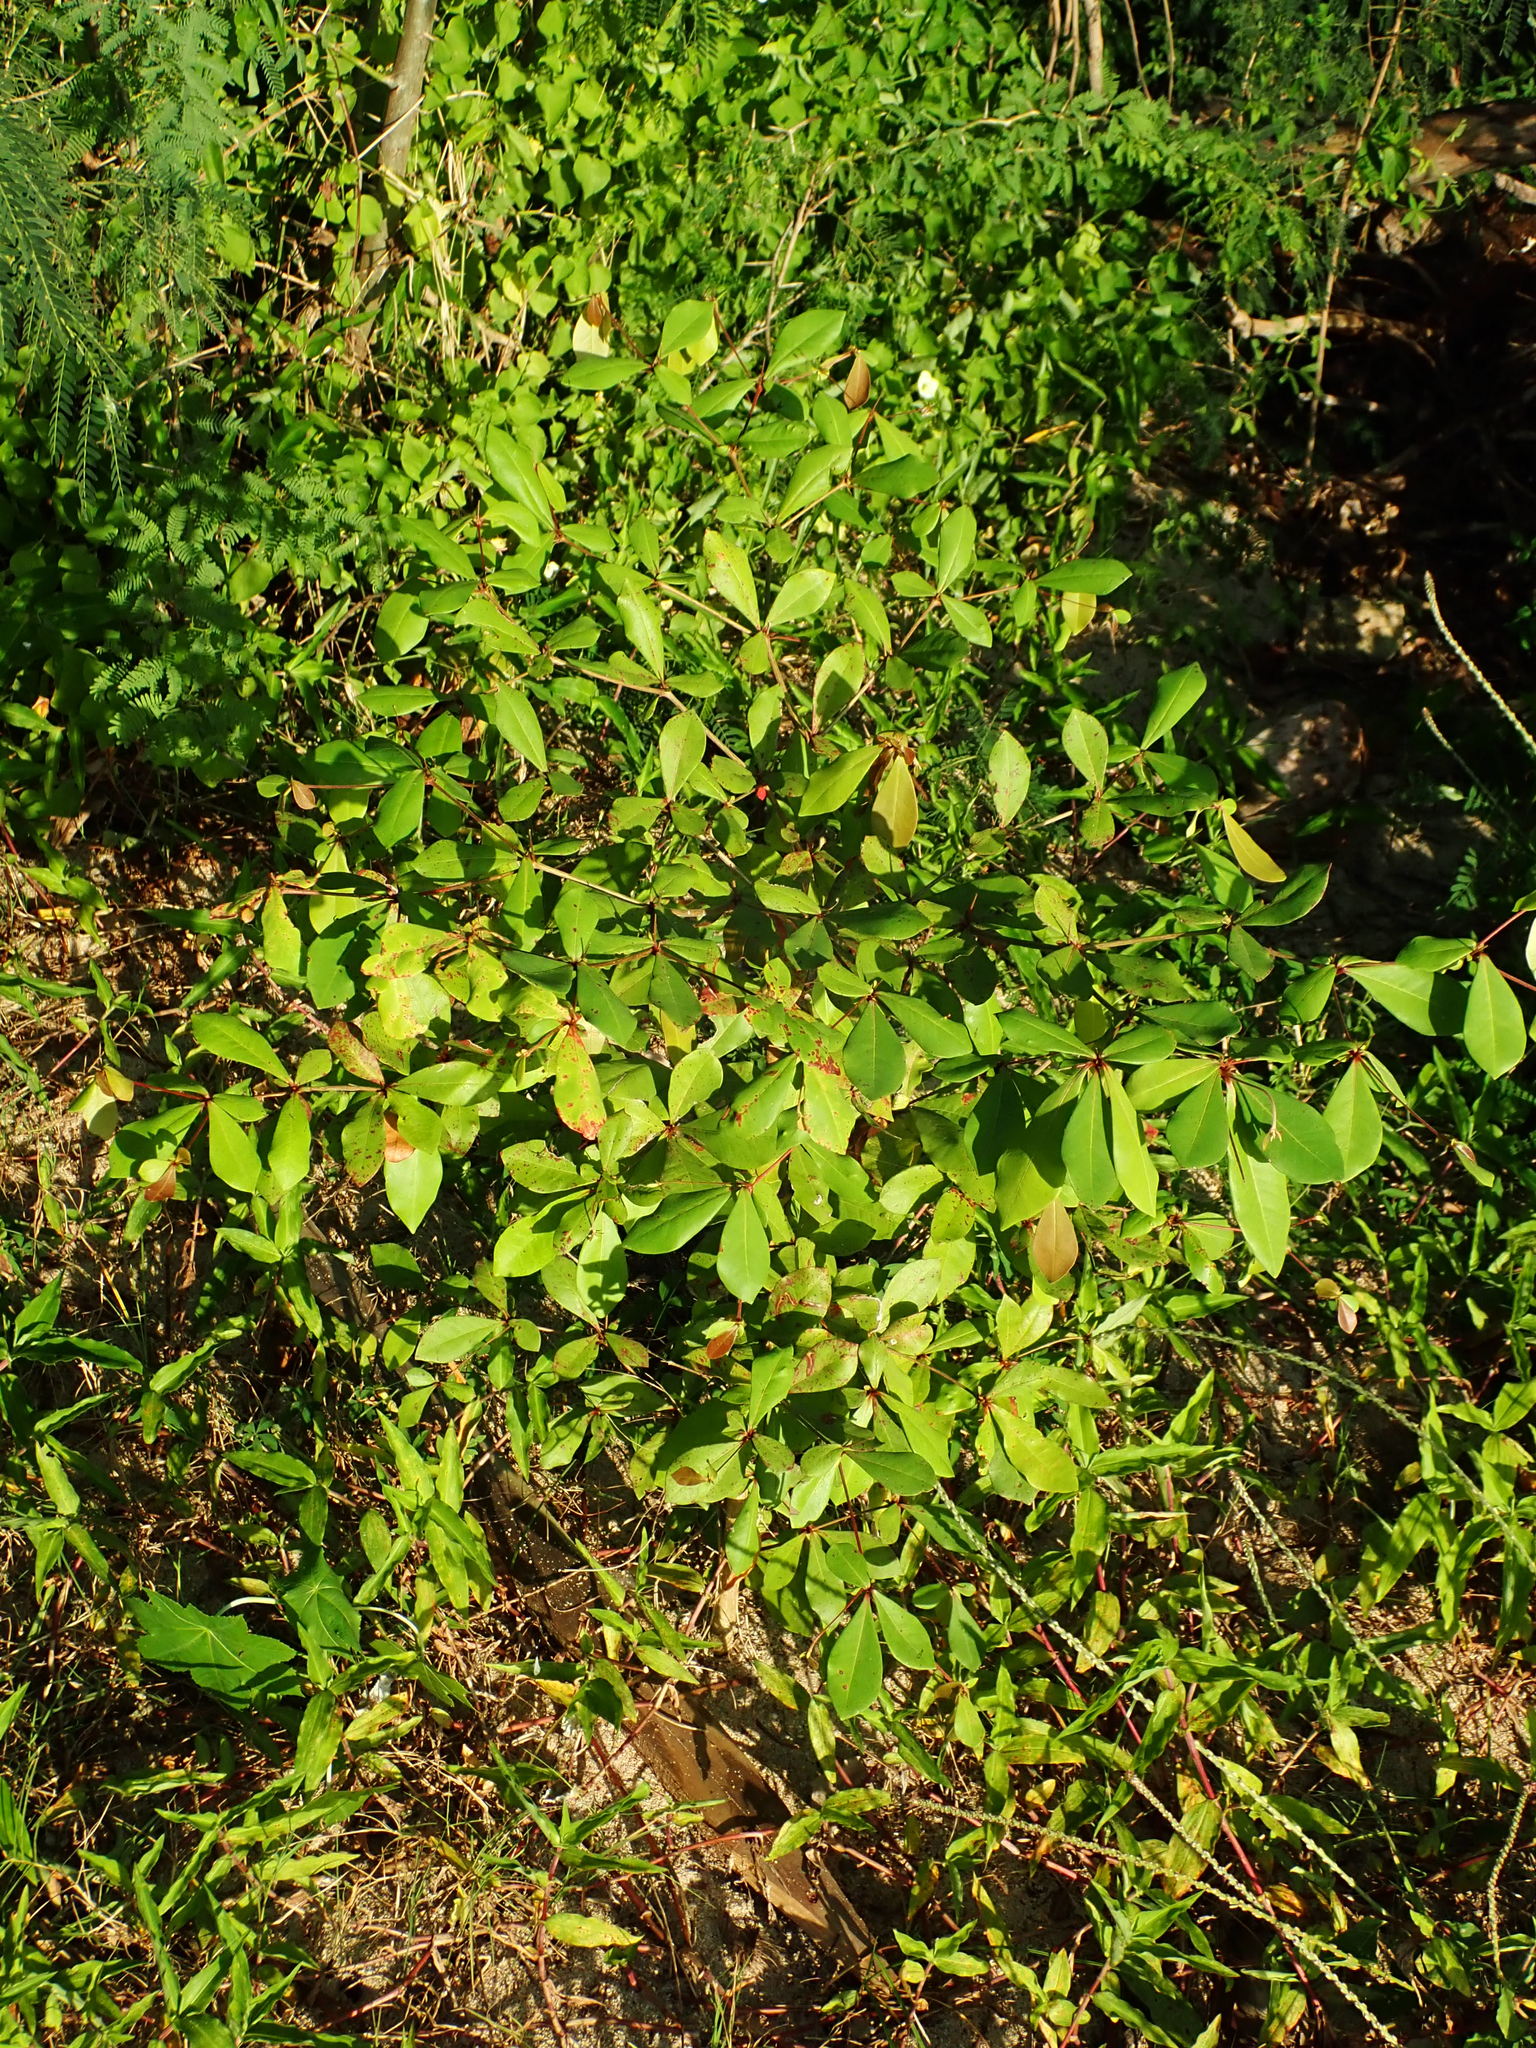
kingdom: Plantae
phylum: Tracheophyta
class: Magnoliopsida
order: Myrtales
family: Combretaceae
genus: Terminalia
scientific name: Terminalia buceras
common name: Black-olive
